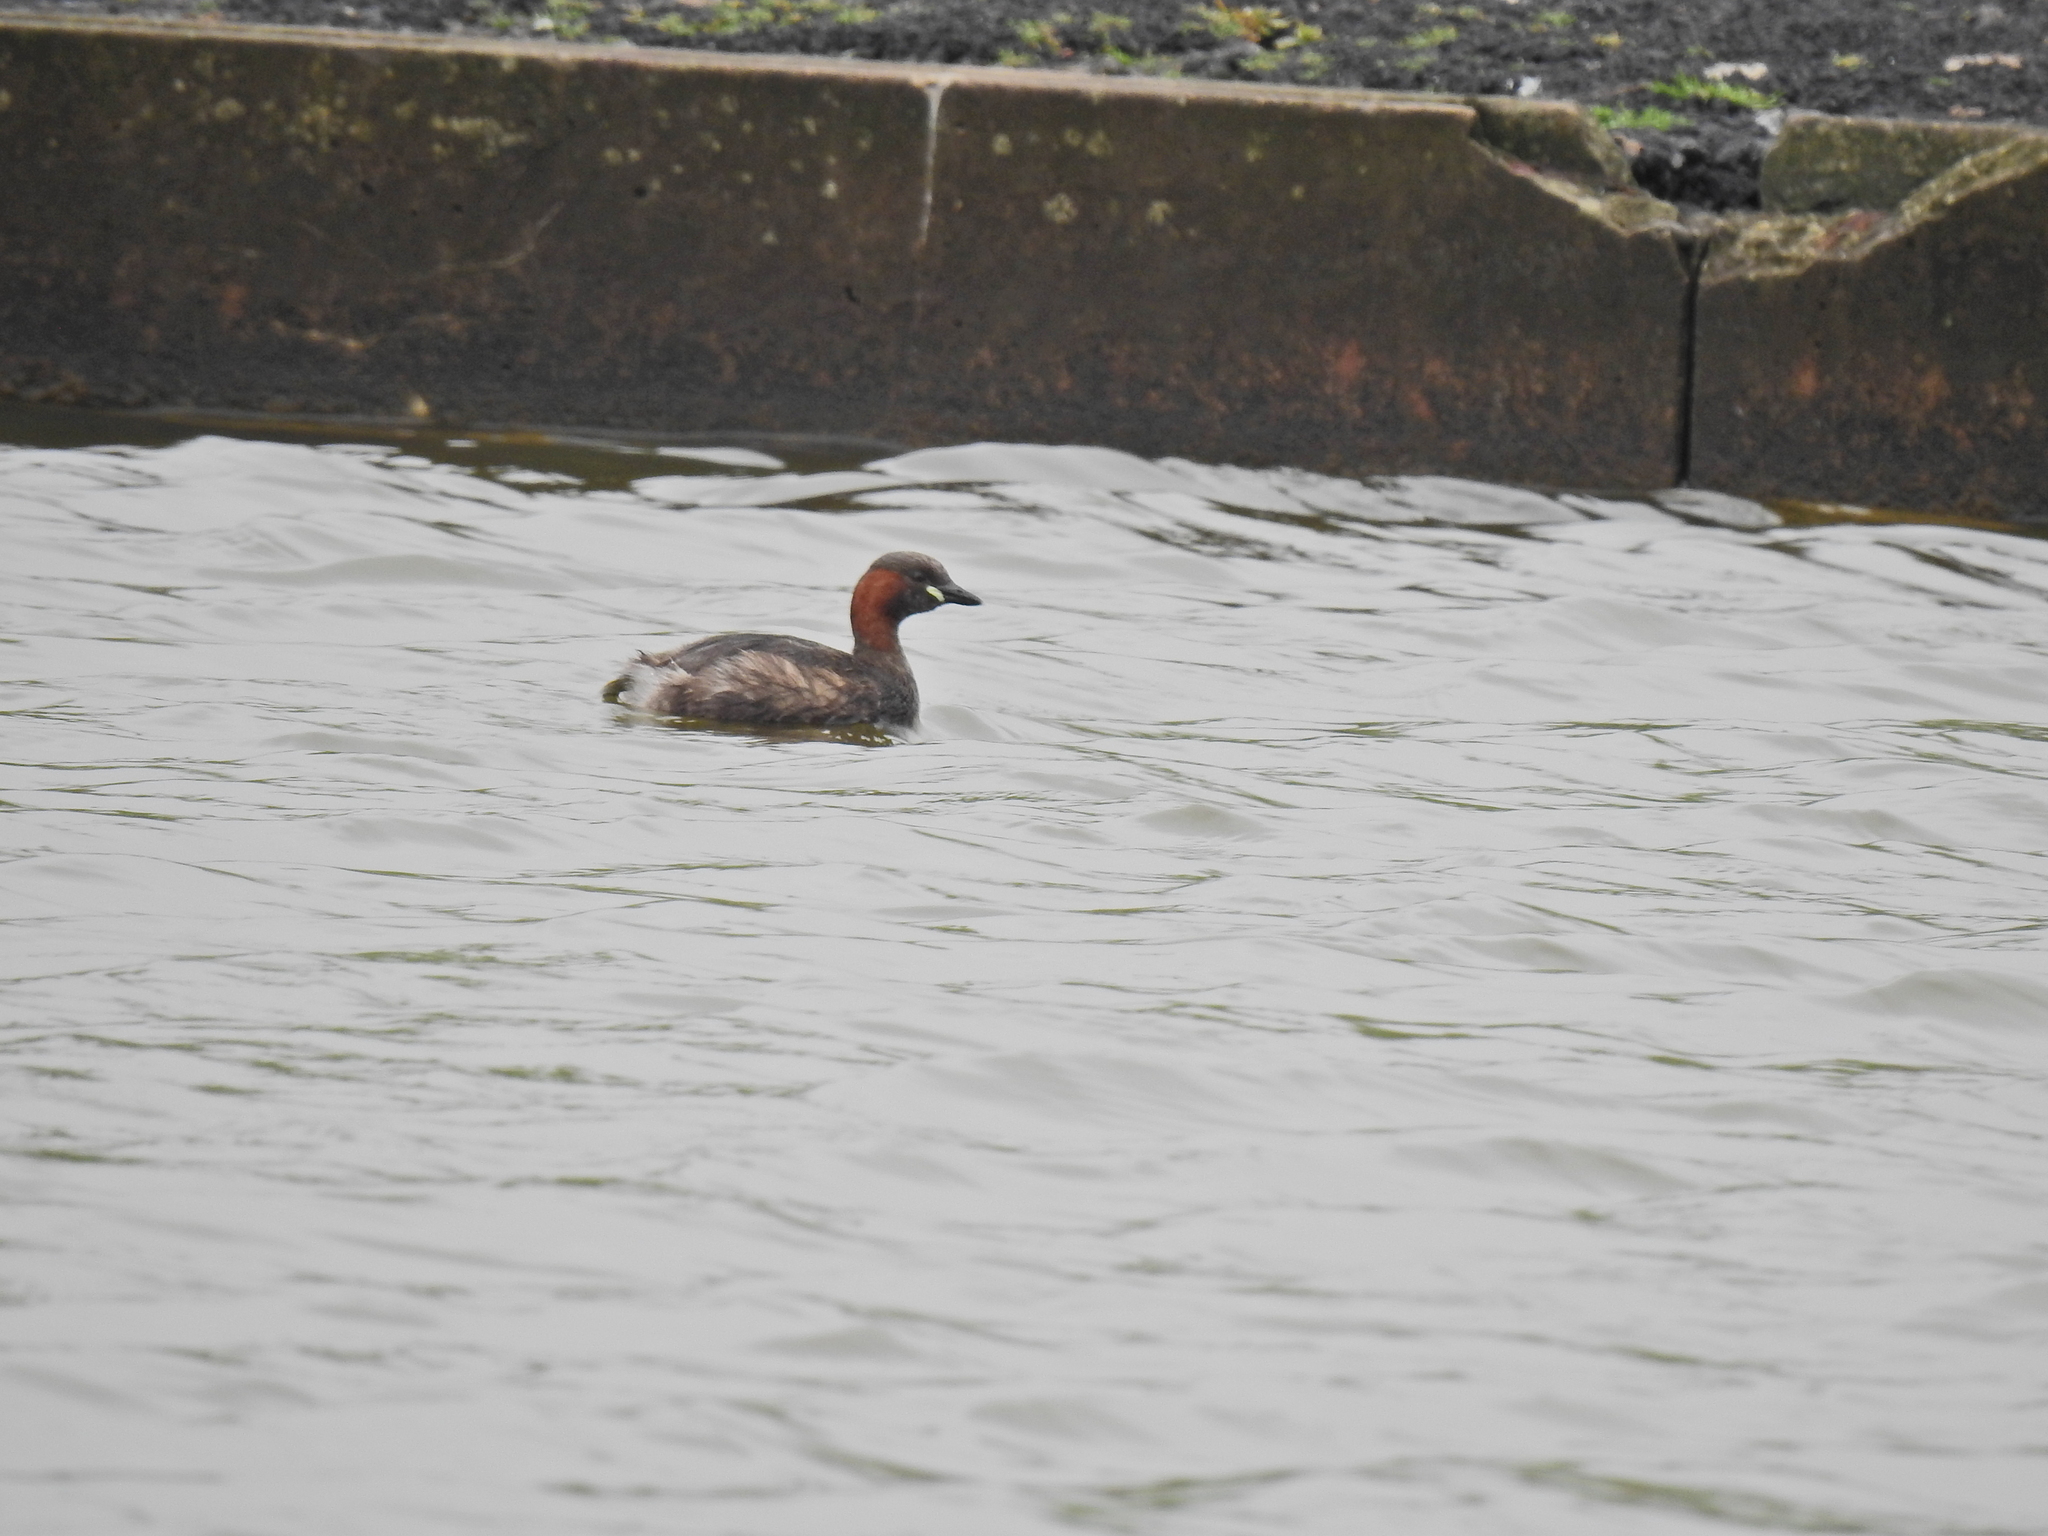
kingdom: Animalia
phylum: Chordata
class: Aves
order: Podicipediformes
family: Podicipedidae
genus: Tachybaptus
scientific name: Tachybaptus ruficollis
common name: Little grebe
